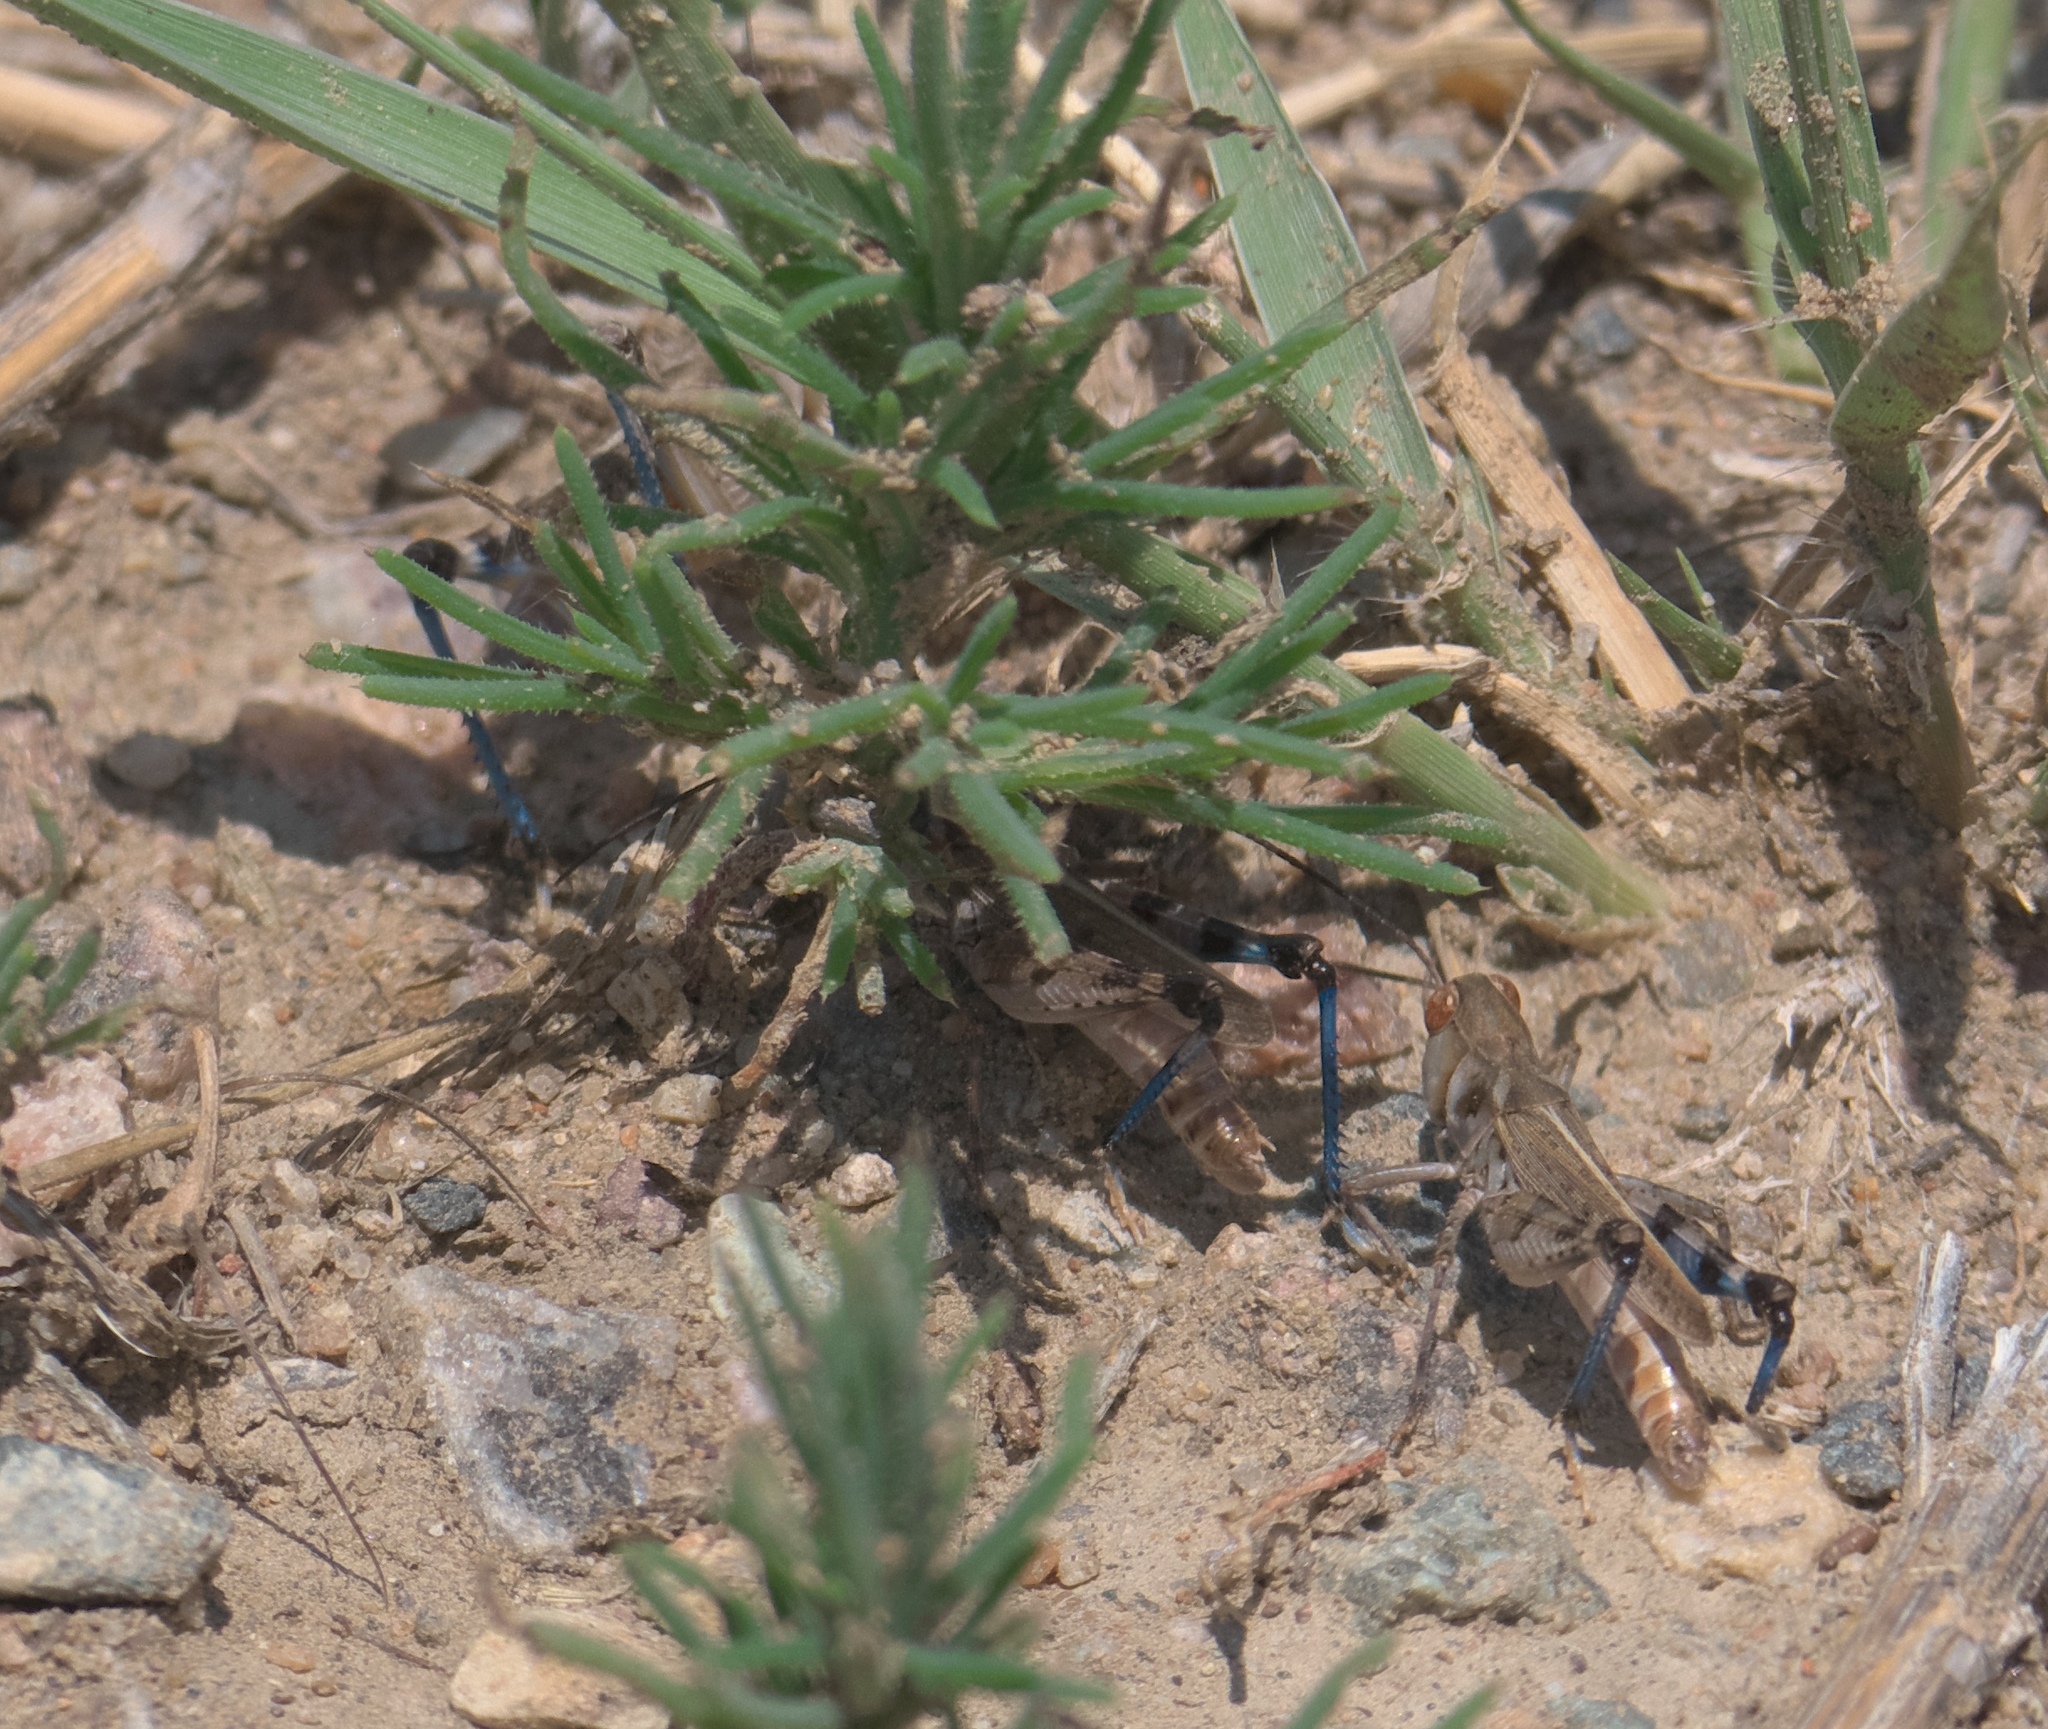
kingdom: Animalia
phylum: Arthropoda
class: Insecta
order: Orthoptera
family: Acrididae
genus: Aulocara
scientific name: Aulocara elliotti
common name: Bigheaded grasshopper
